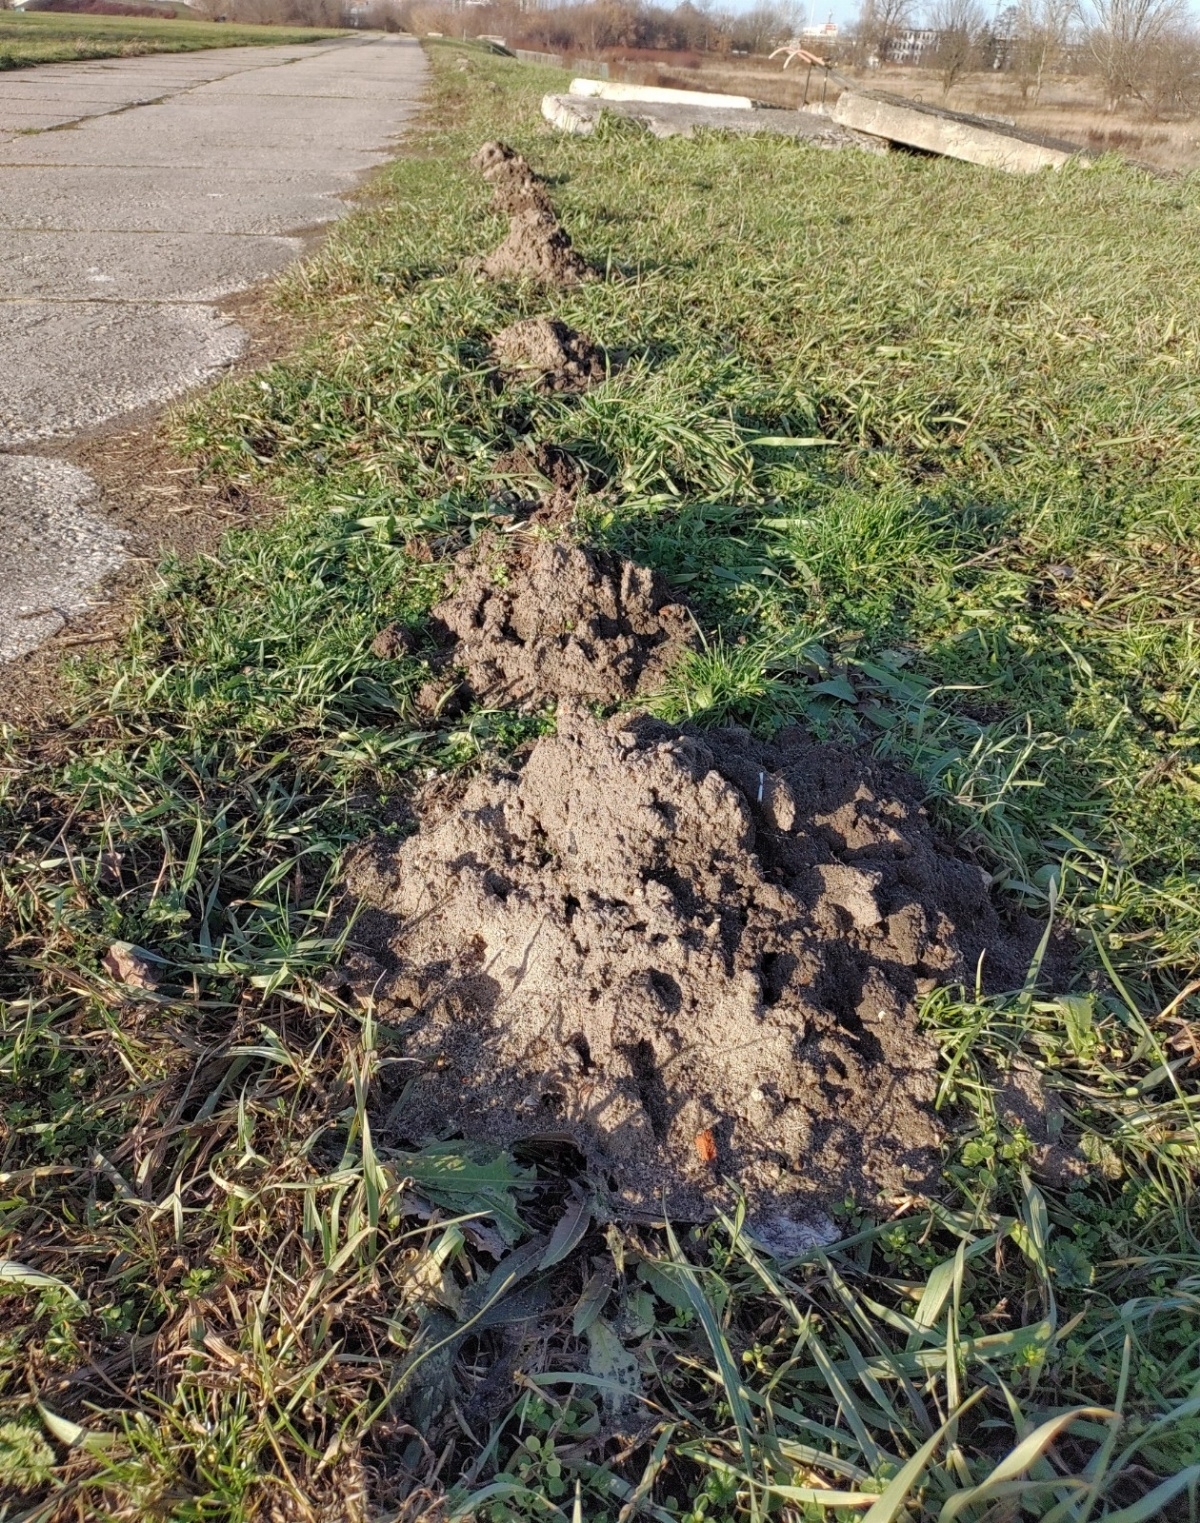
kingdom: Animalia
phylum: Chordata
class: Mammalia
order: Soricomorpha
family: Talpidae
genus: Talpa
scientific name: Talpa europaea
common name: European mole
